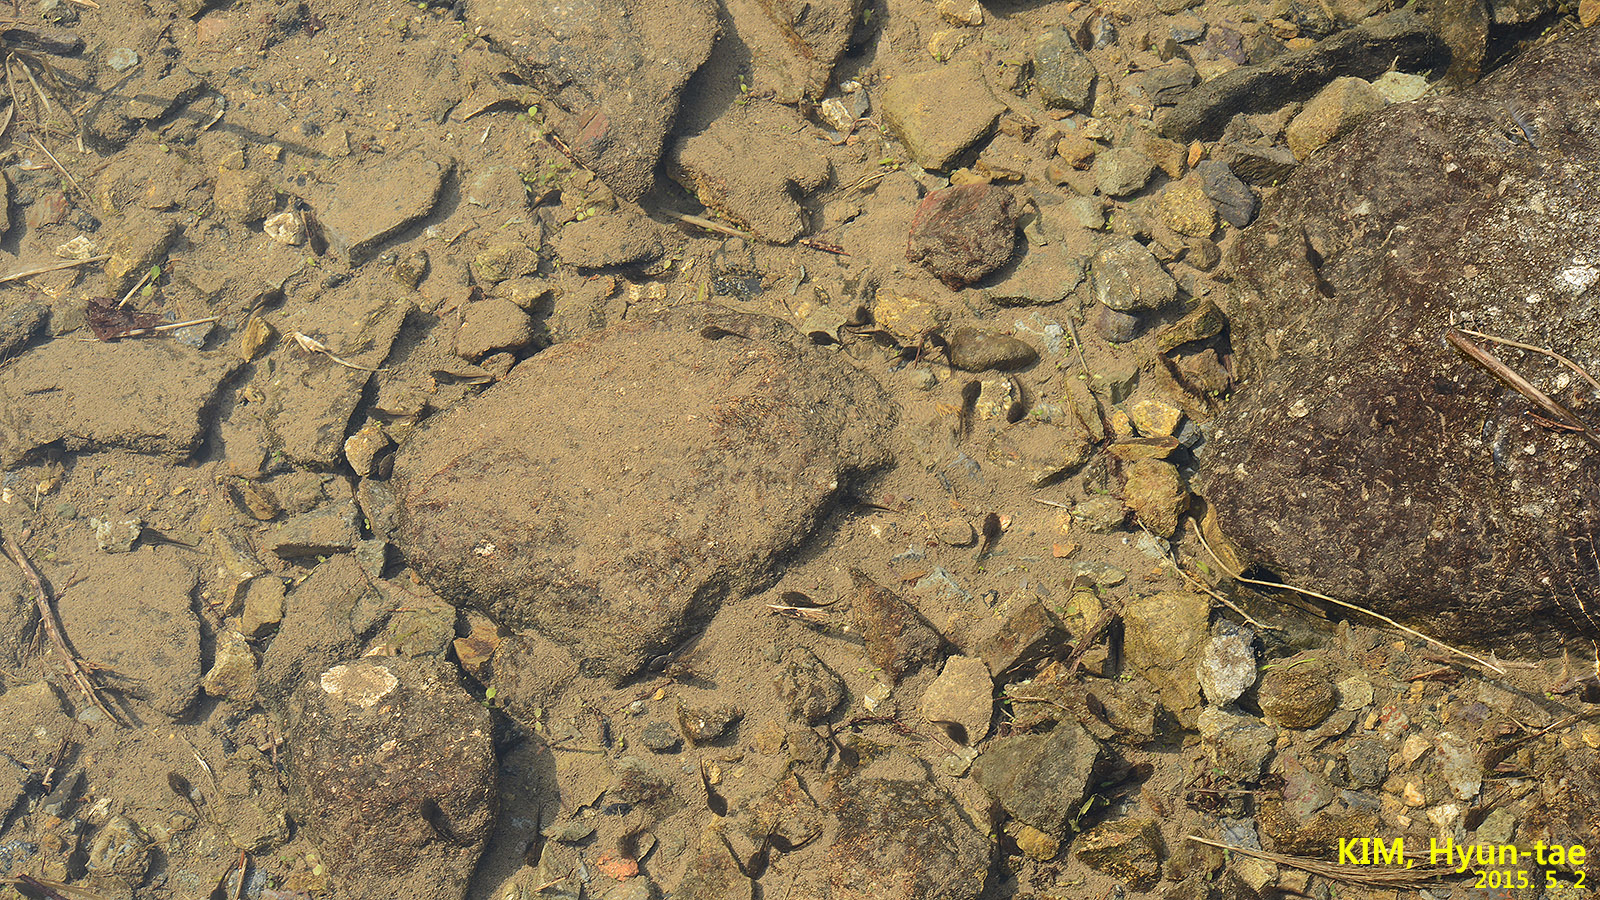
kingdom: Animalia
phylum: Chordata
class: Amphibia
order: Anura
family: Ranidae
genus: Rana
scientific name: Rana huanrenensis
